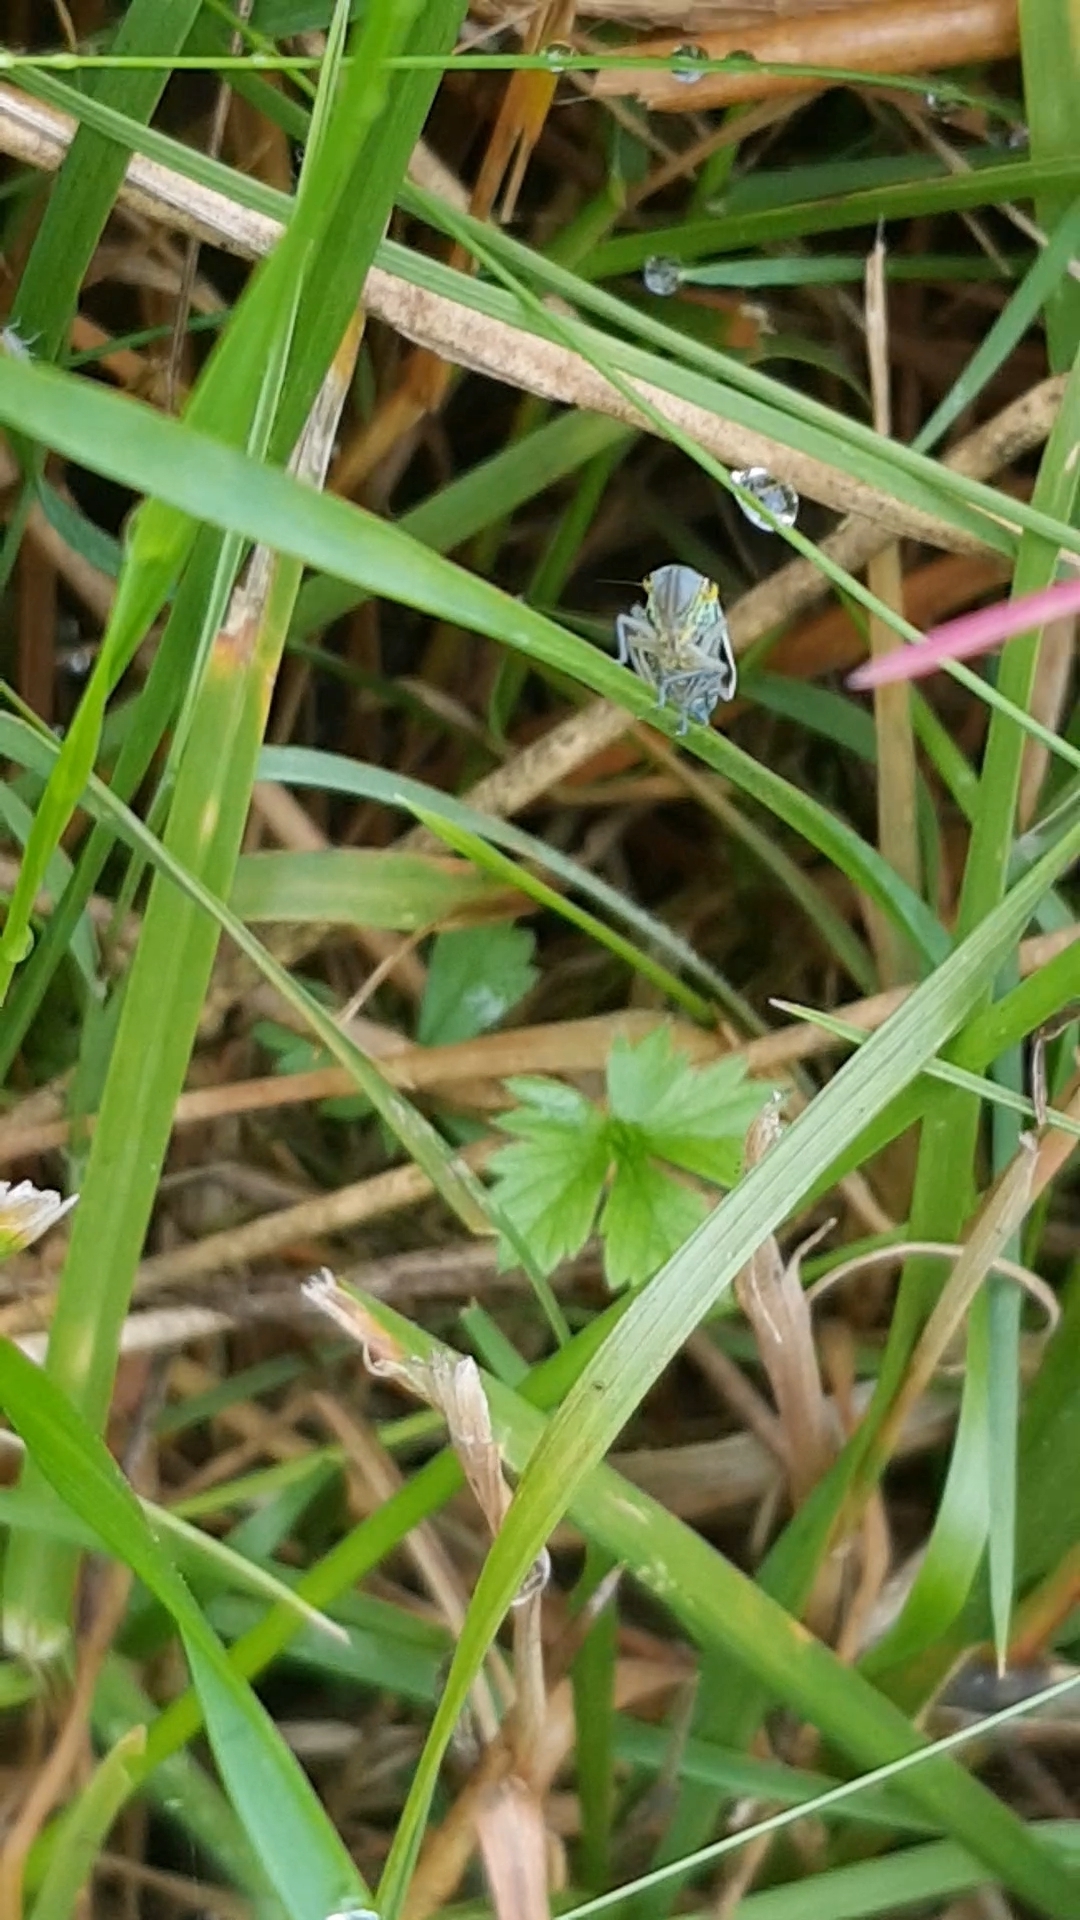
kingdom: Animalia
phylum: Arthropoda
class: Insecta
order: Hemiptera
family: Cicadellidae
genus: Cicadella
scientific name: Cicadella viridis
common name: Leafhopper
